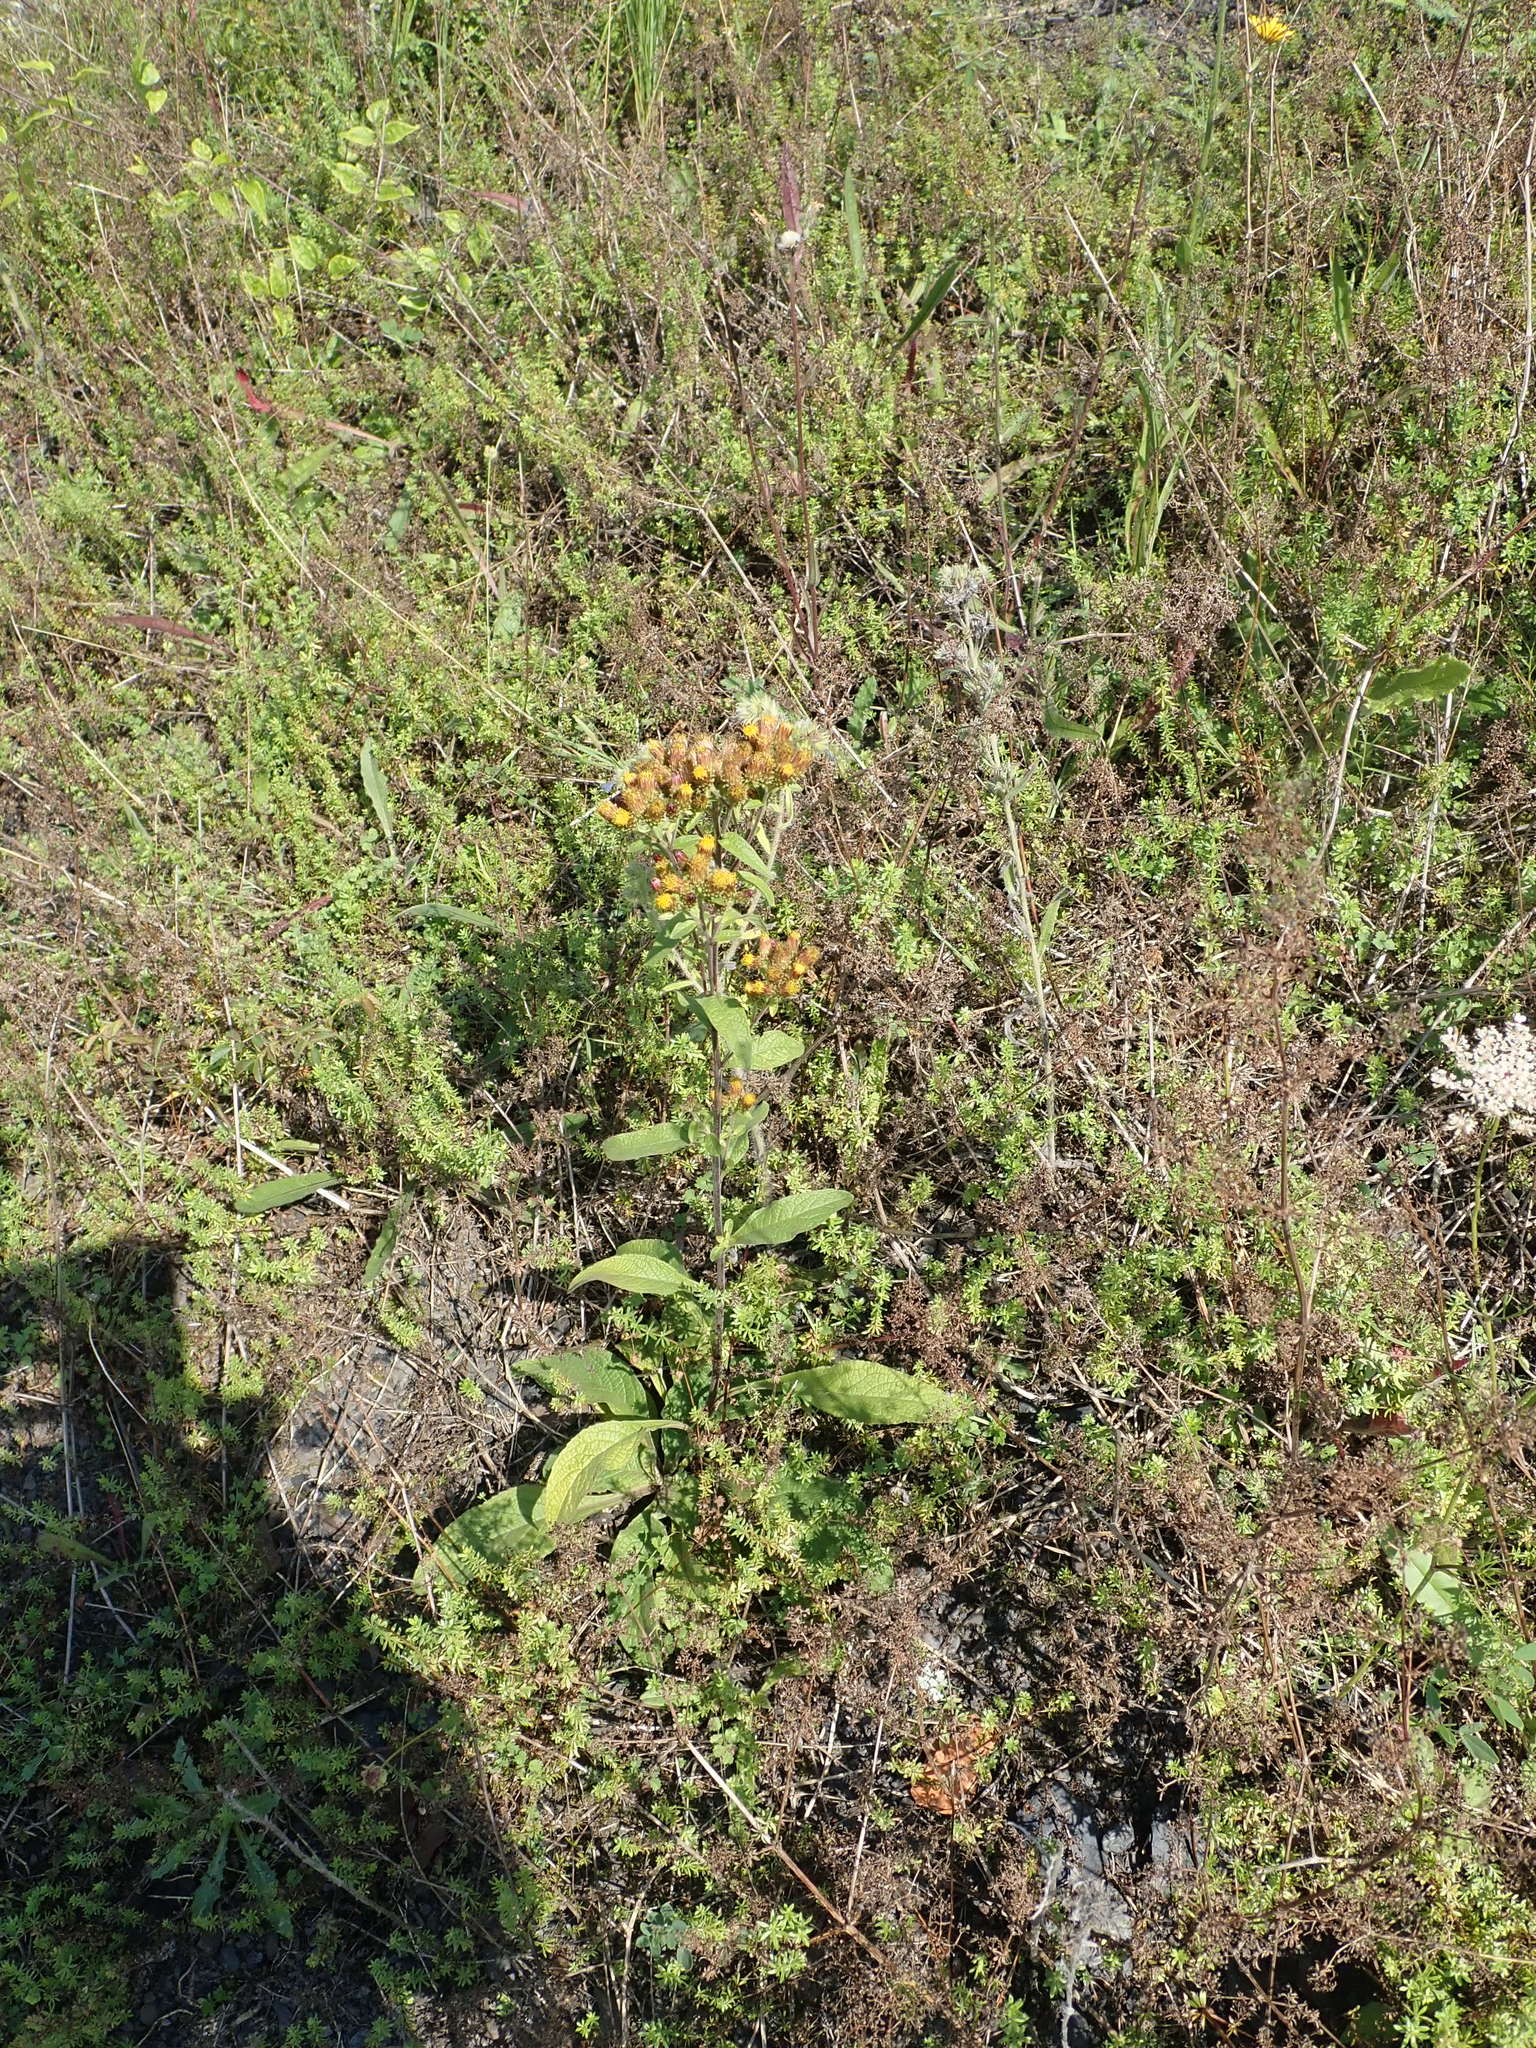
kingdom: Plantae
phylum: Tracheophyta
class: Magnoliopsida
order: Asterales
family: Asteraceae
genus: Pentanema
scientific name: Pentanema squarrosum
